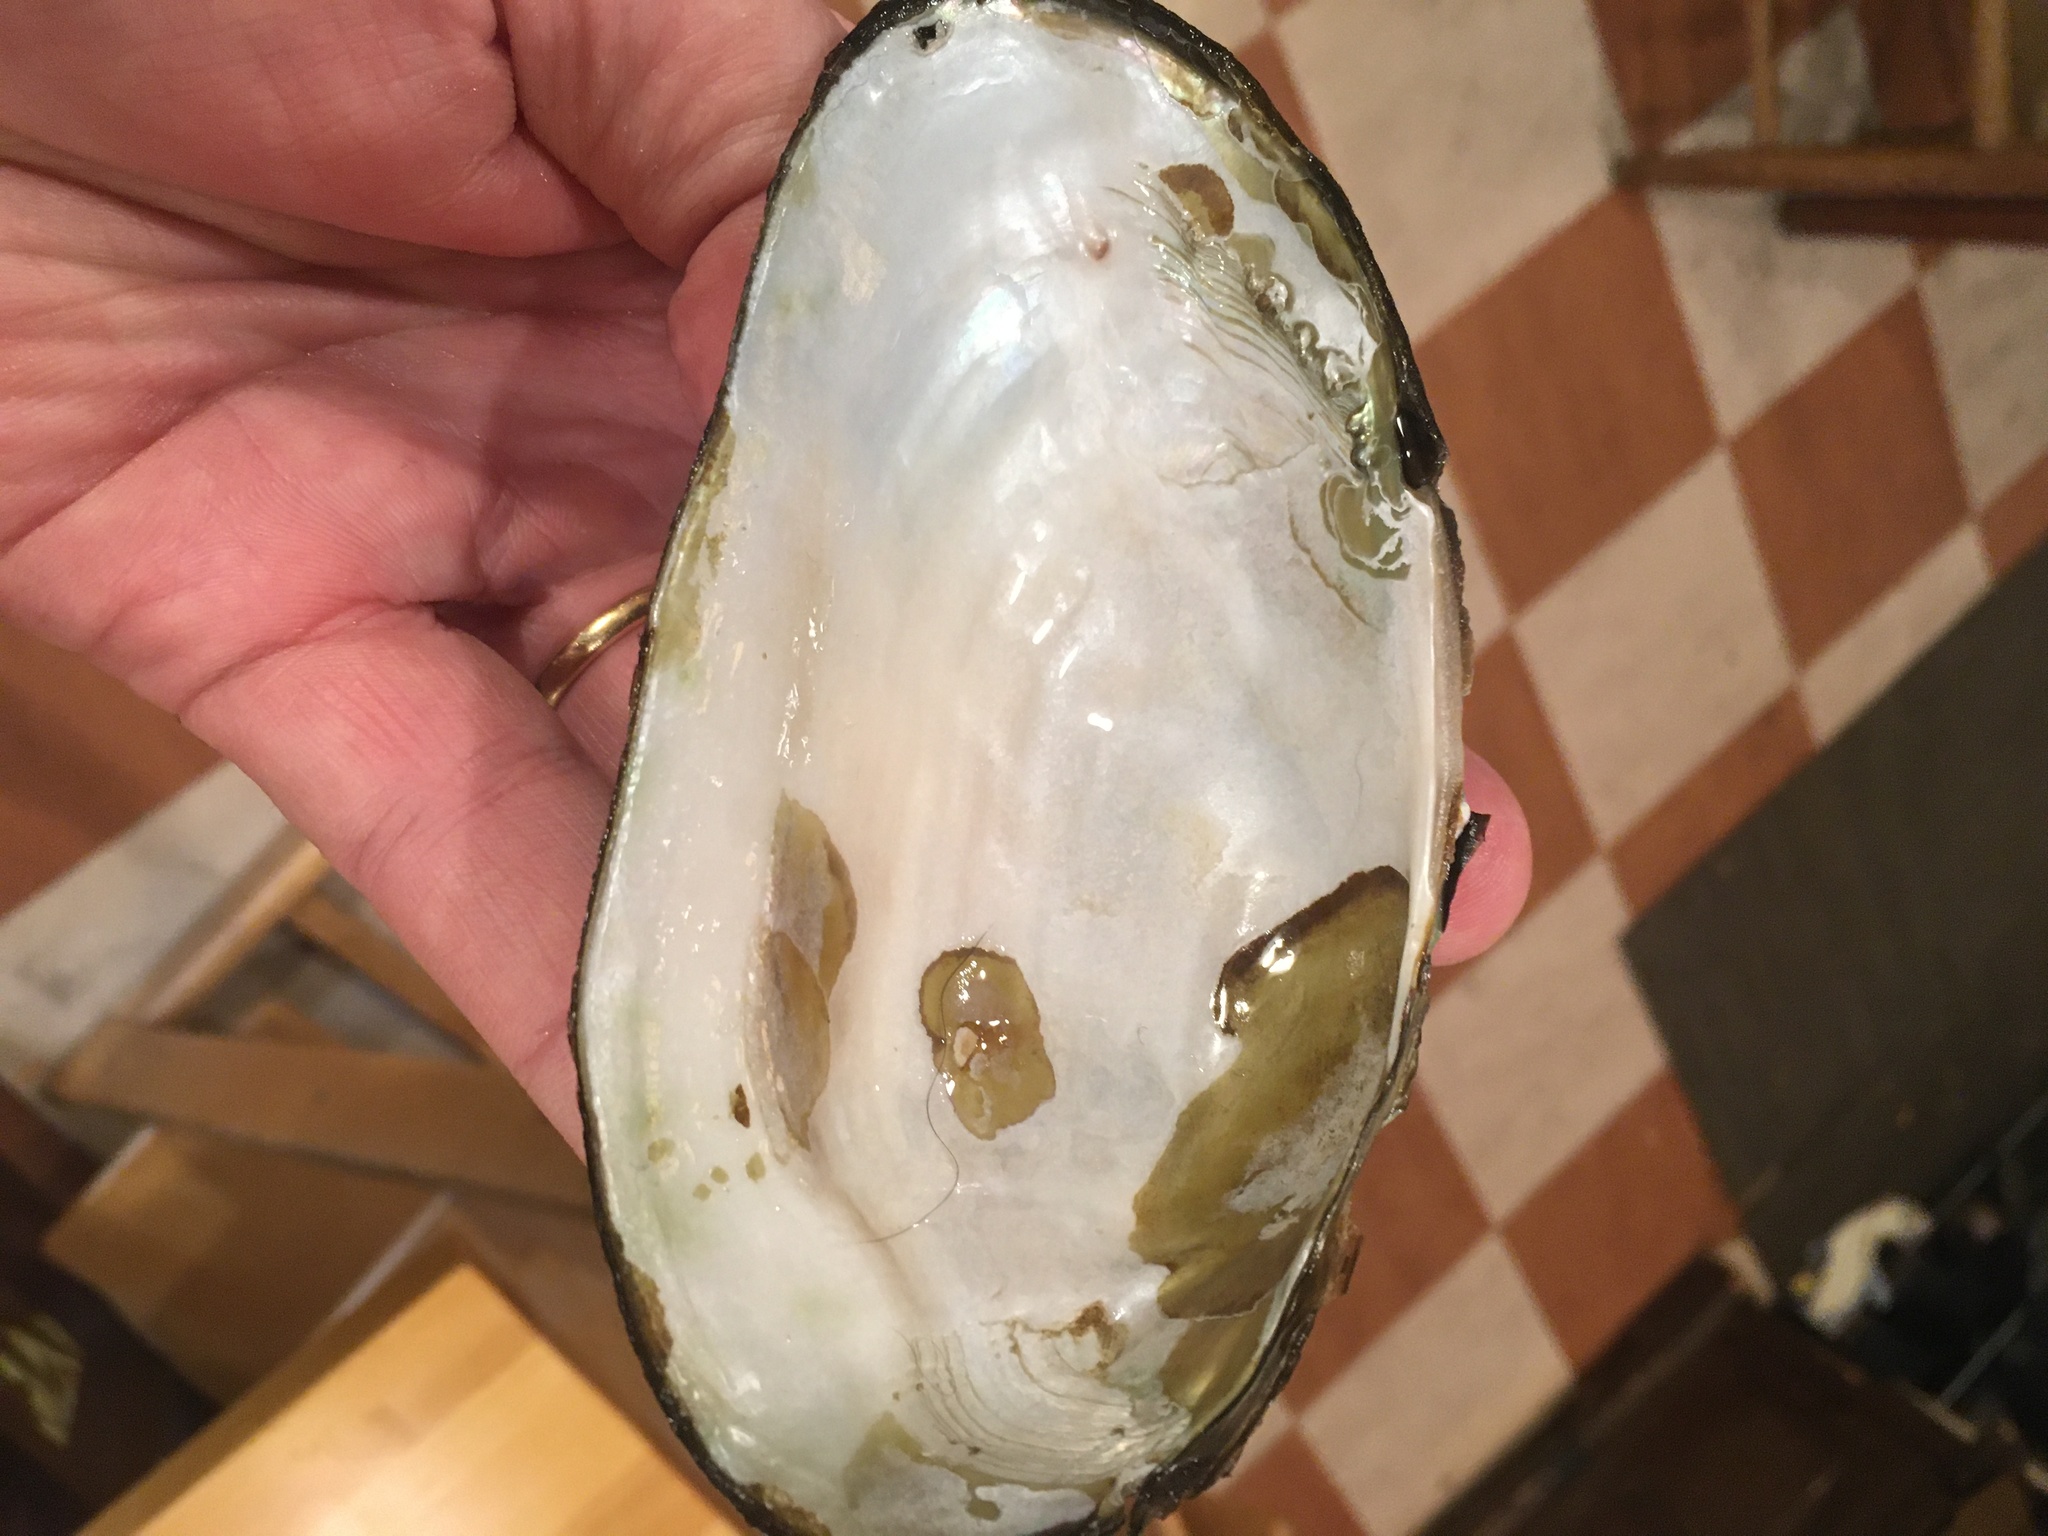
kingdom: Animalia
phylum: Mollusca
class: Bivalvia
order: Unionida
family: Unionidae
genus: Utterbackiana
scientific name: Utterbackiana implicata
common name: Alewife floater
